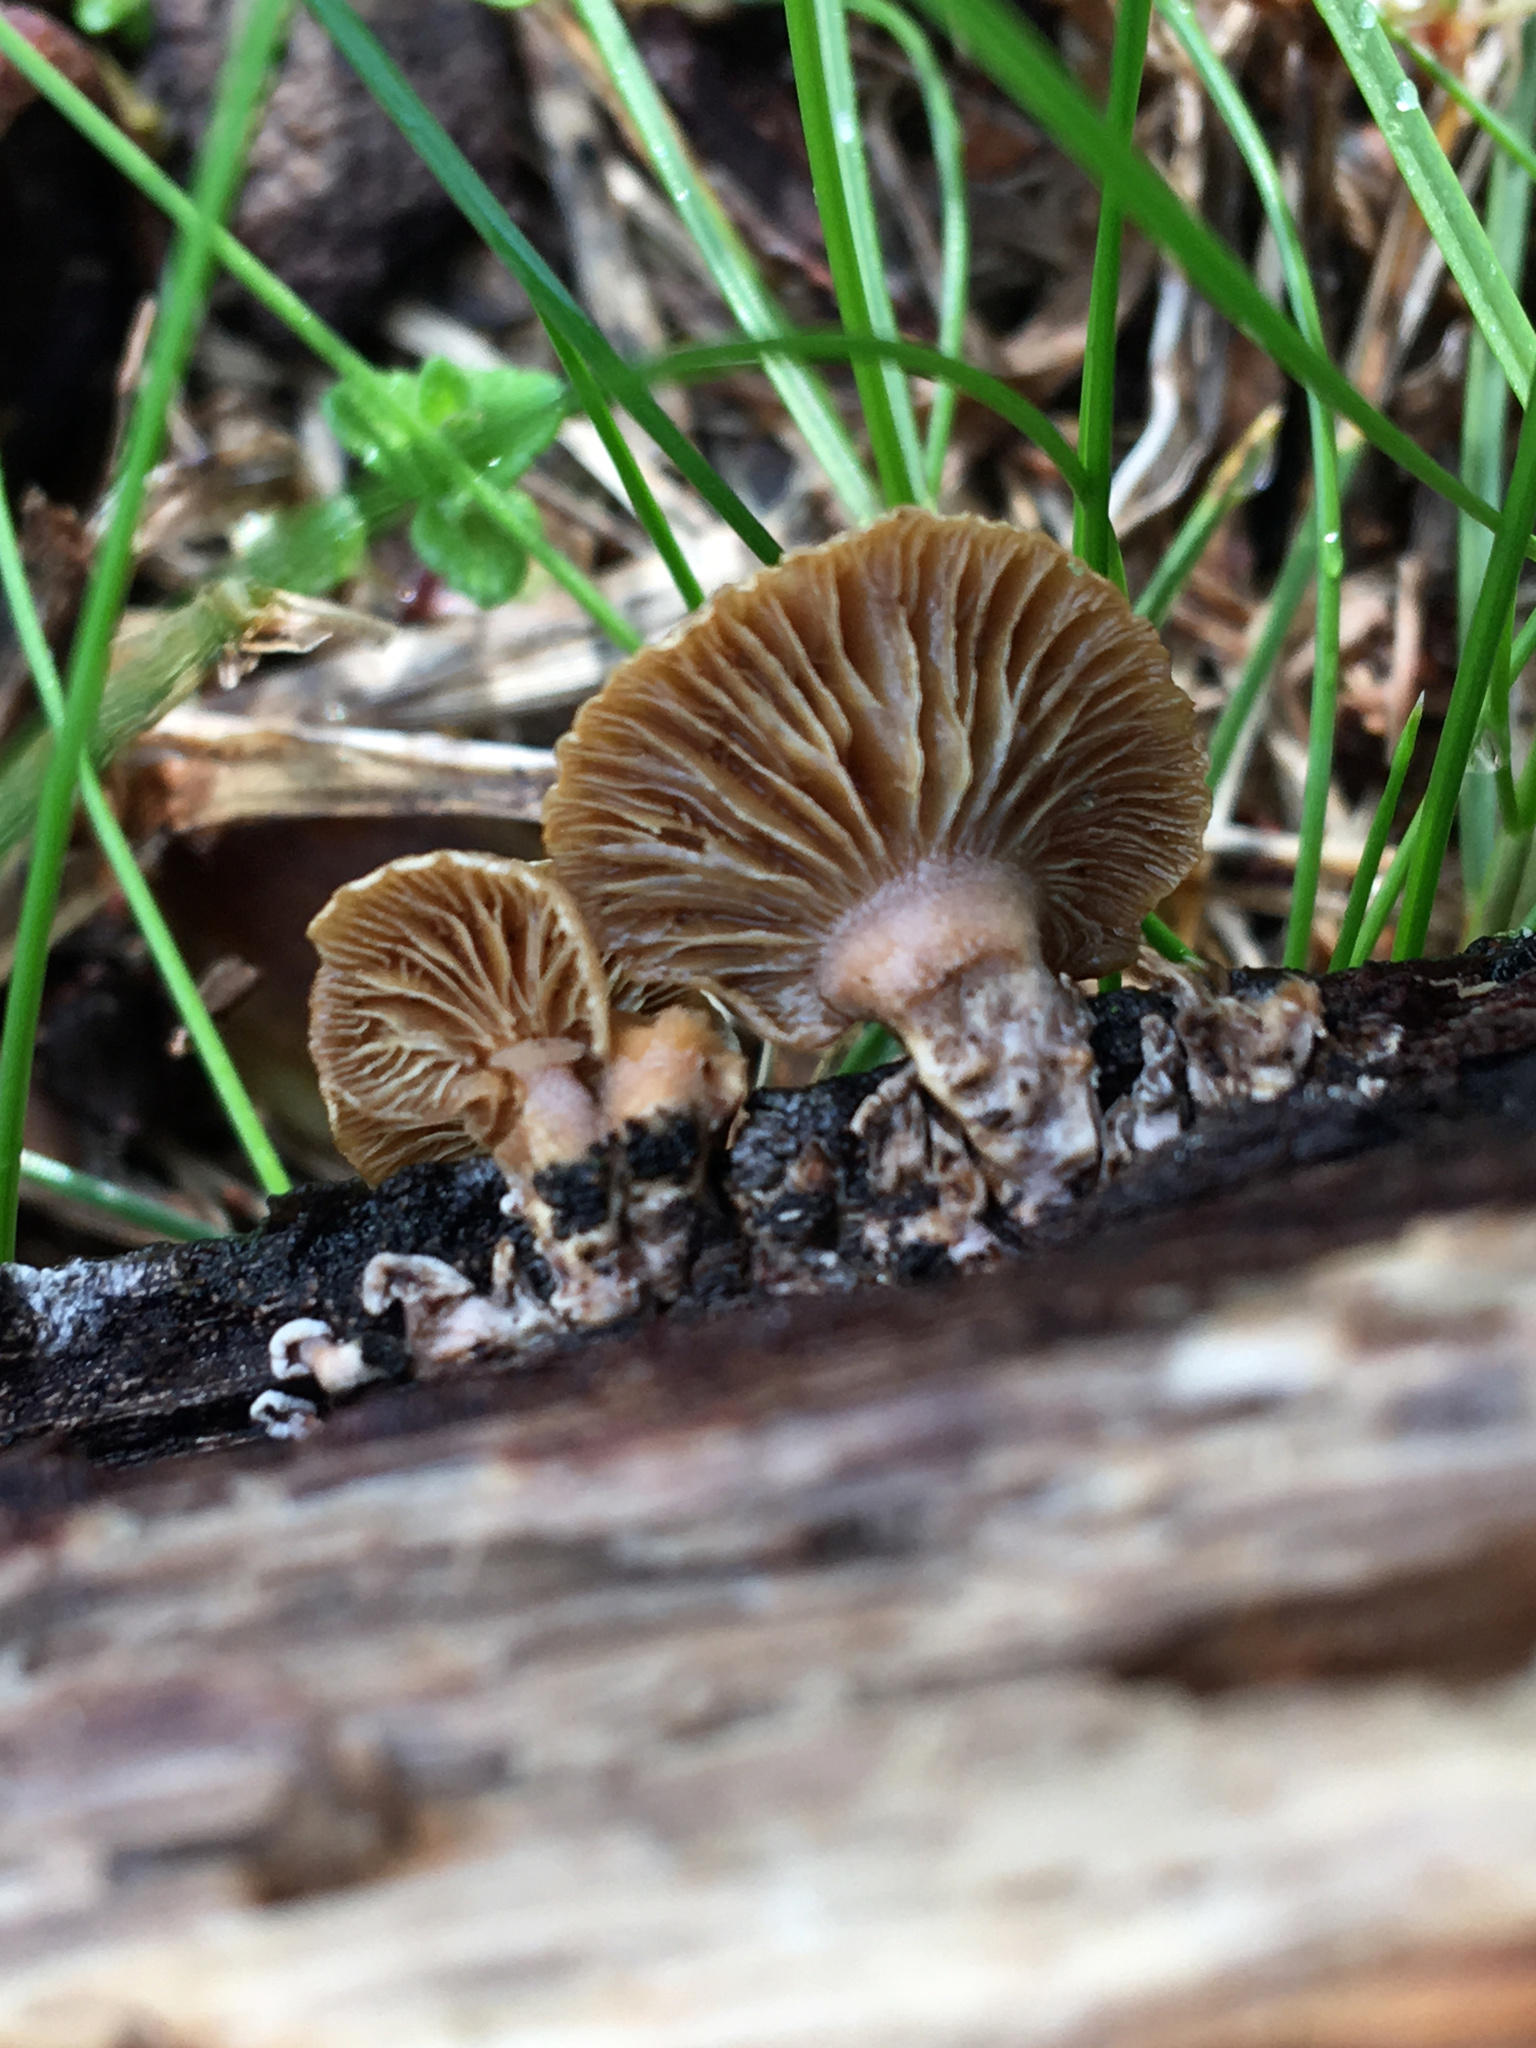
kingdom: Fungi
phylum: Basidiomycota
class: Agaricomycetes
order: Agaricales
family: Mycenaceae
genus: Panellus
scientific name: Panellus stipticus
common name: Bitter oysterling
